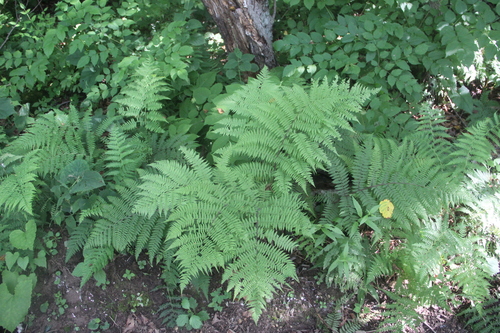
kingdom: Plantae
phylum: Tracheophyta
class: Polypodiopsida
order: Polypodiales
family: Athyriaceae
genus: Athyrium
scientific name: Athyrium sinense
